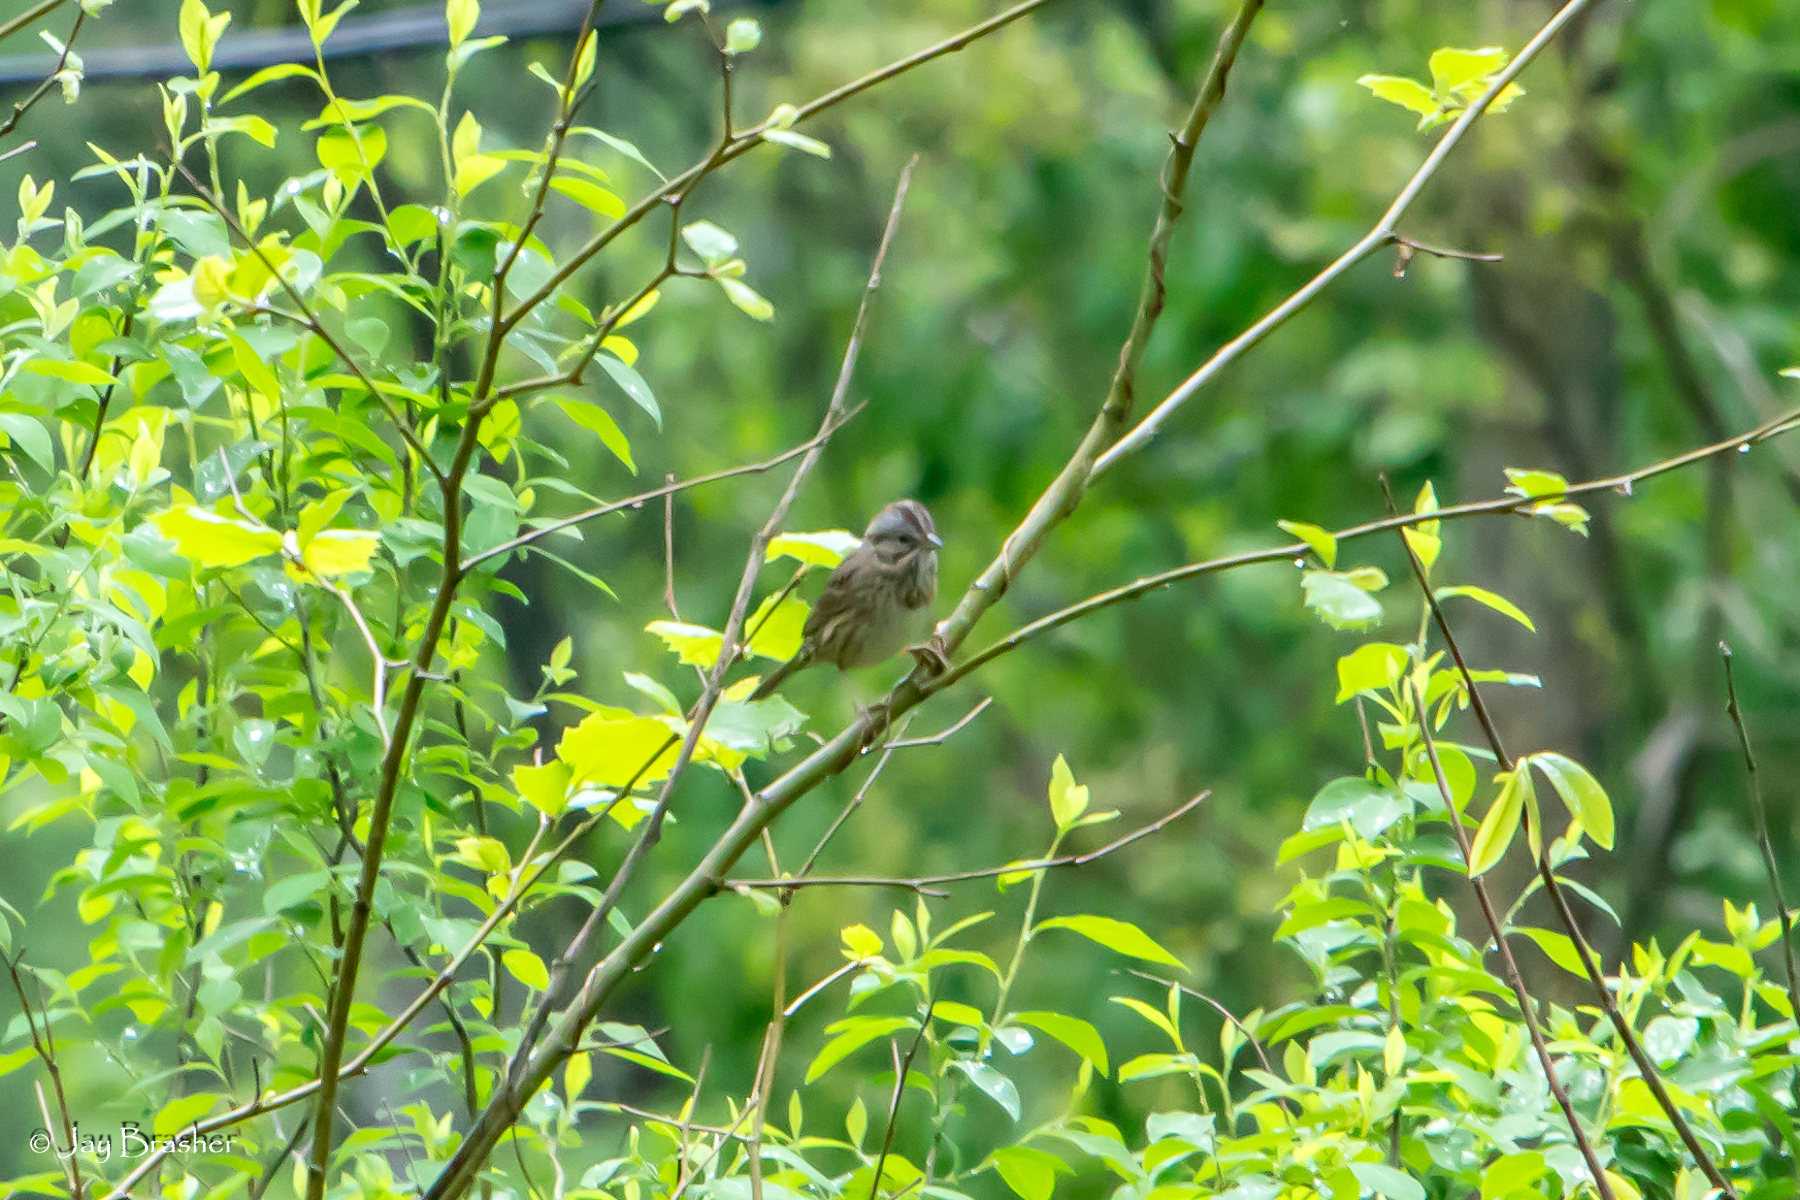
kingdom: Animalia
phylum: Chordata
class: Aves
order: Passeriformes
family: Passerellidae
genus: Melospiza
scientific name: Melospiza melodia
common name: Song sparrow
